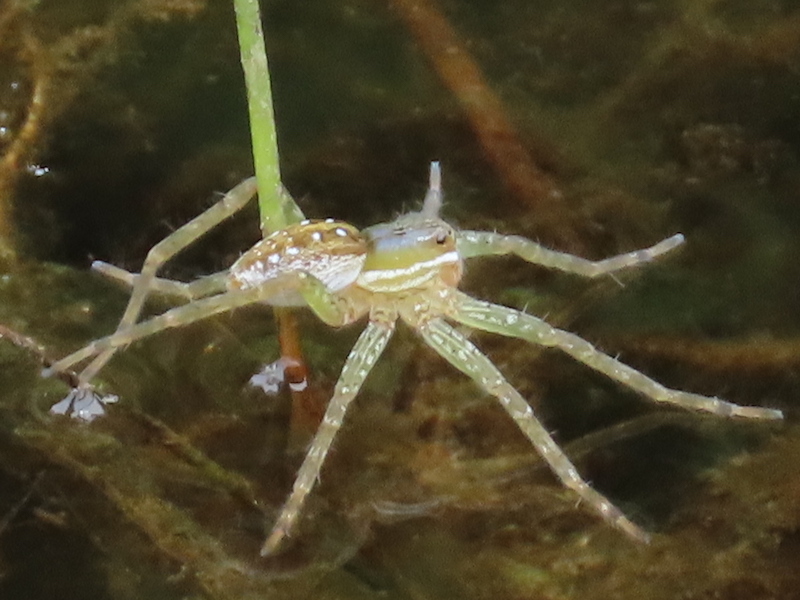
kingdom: Animalia
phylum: Arthropoda
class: Arachnida
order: Araneae
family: Pisauridae
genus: Dolomedes
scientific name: Dolomedes triton
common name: Six-spotted fishing spider
